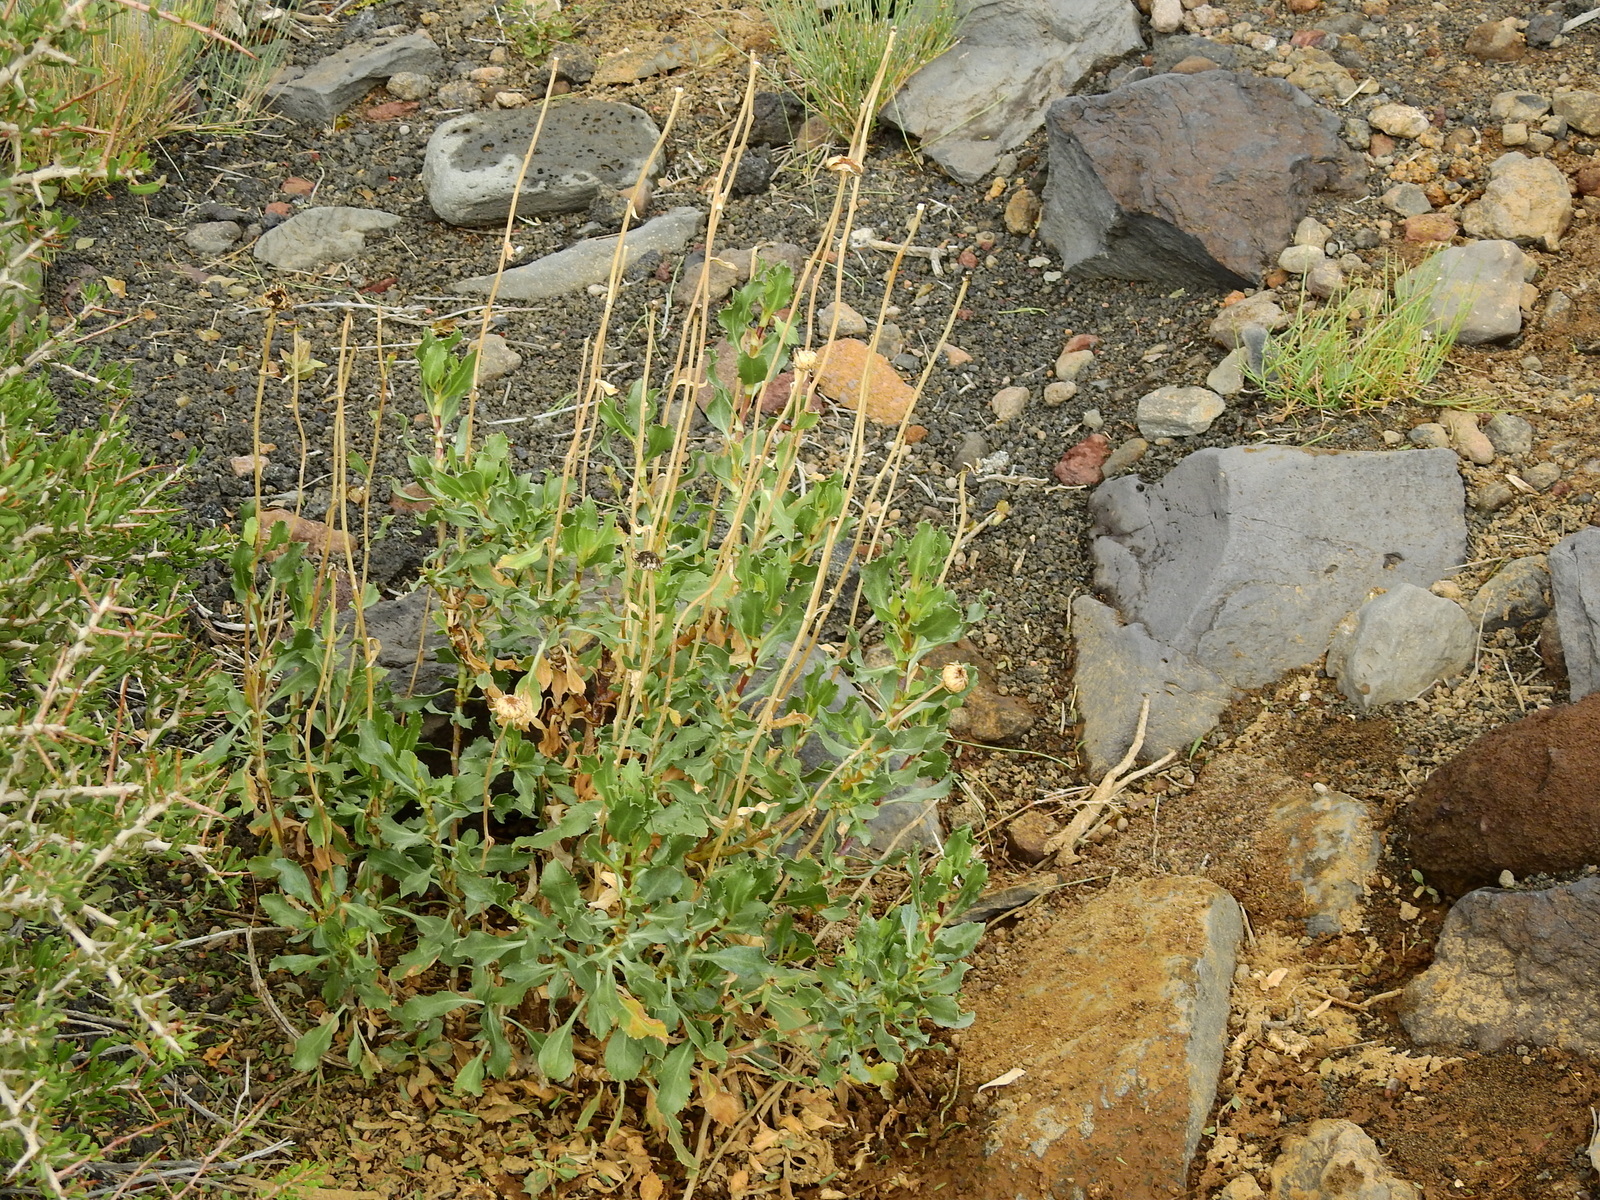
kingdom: Plantae
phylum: Tracheophyta
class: Magnoliopsida
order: Asterales
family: Asteraceae
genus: Grindelia
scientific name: Grindelia chiloensis
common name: Shrubby gumweed
